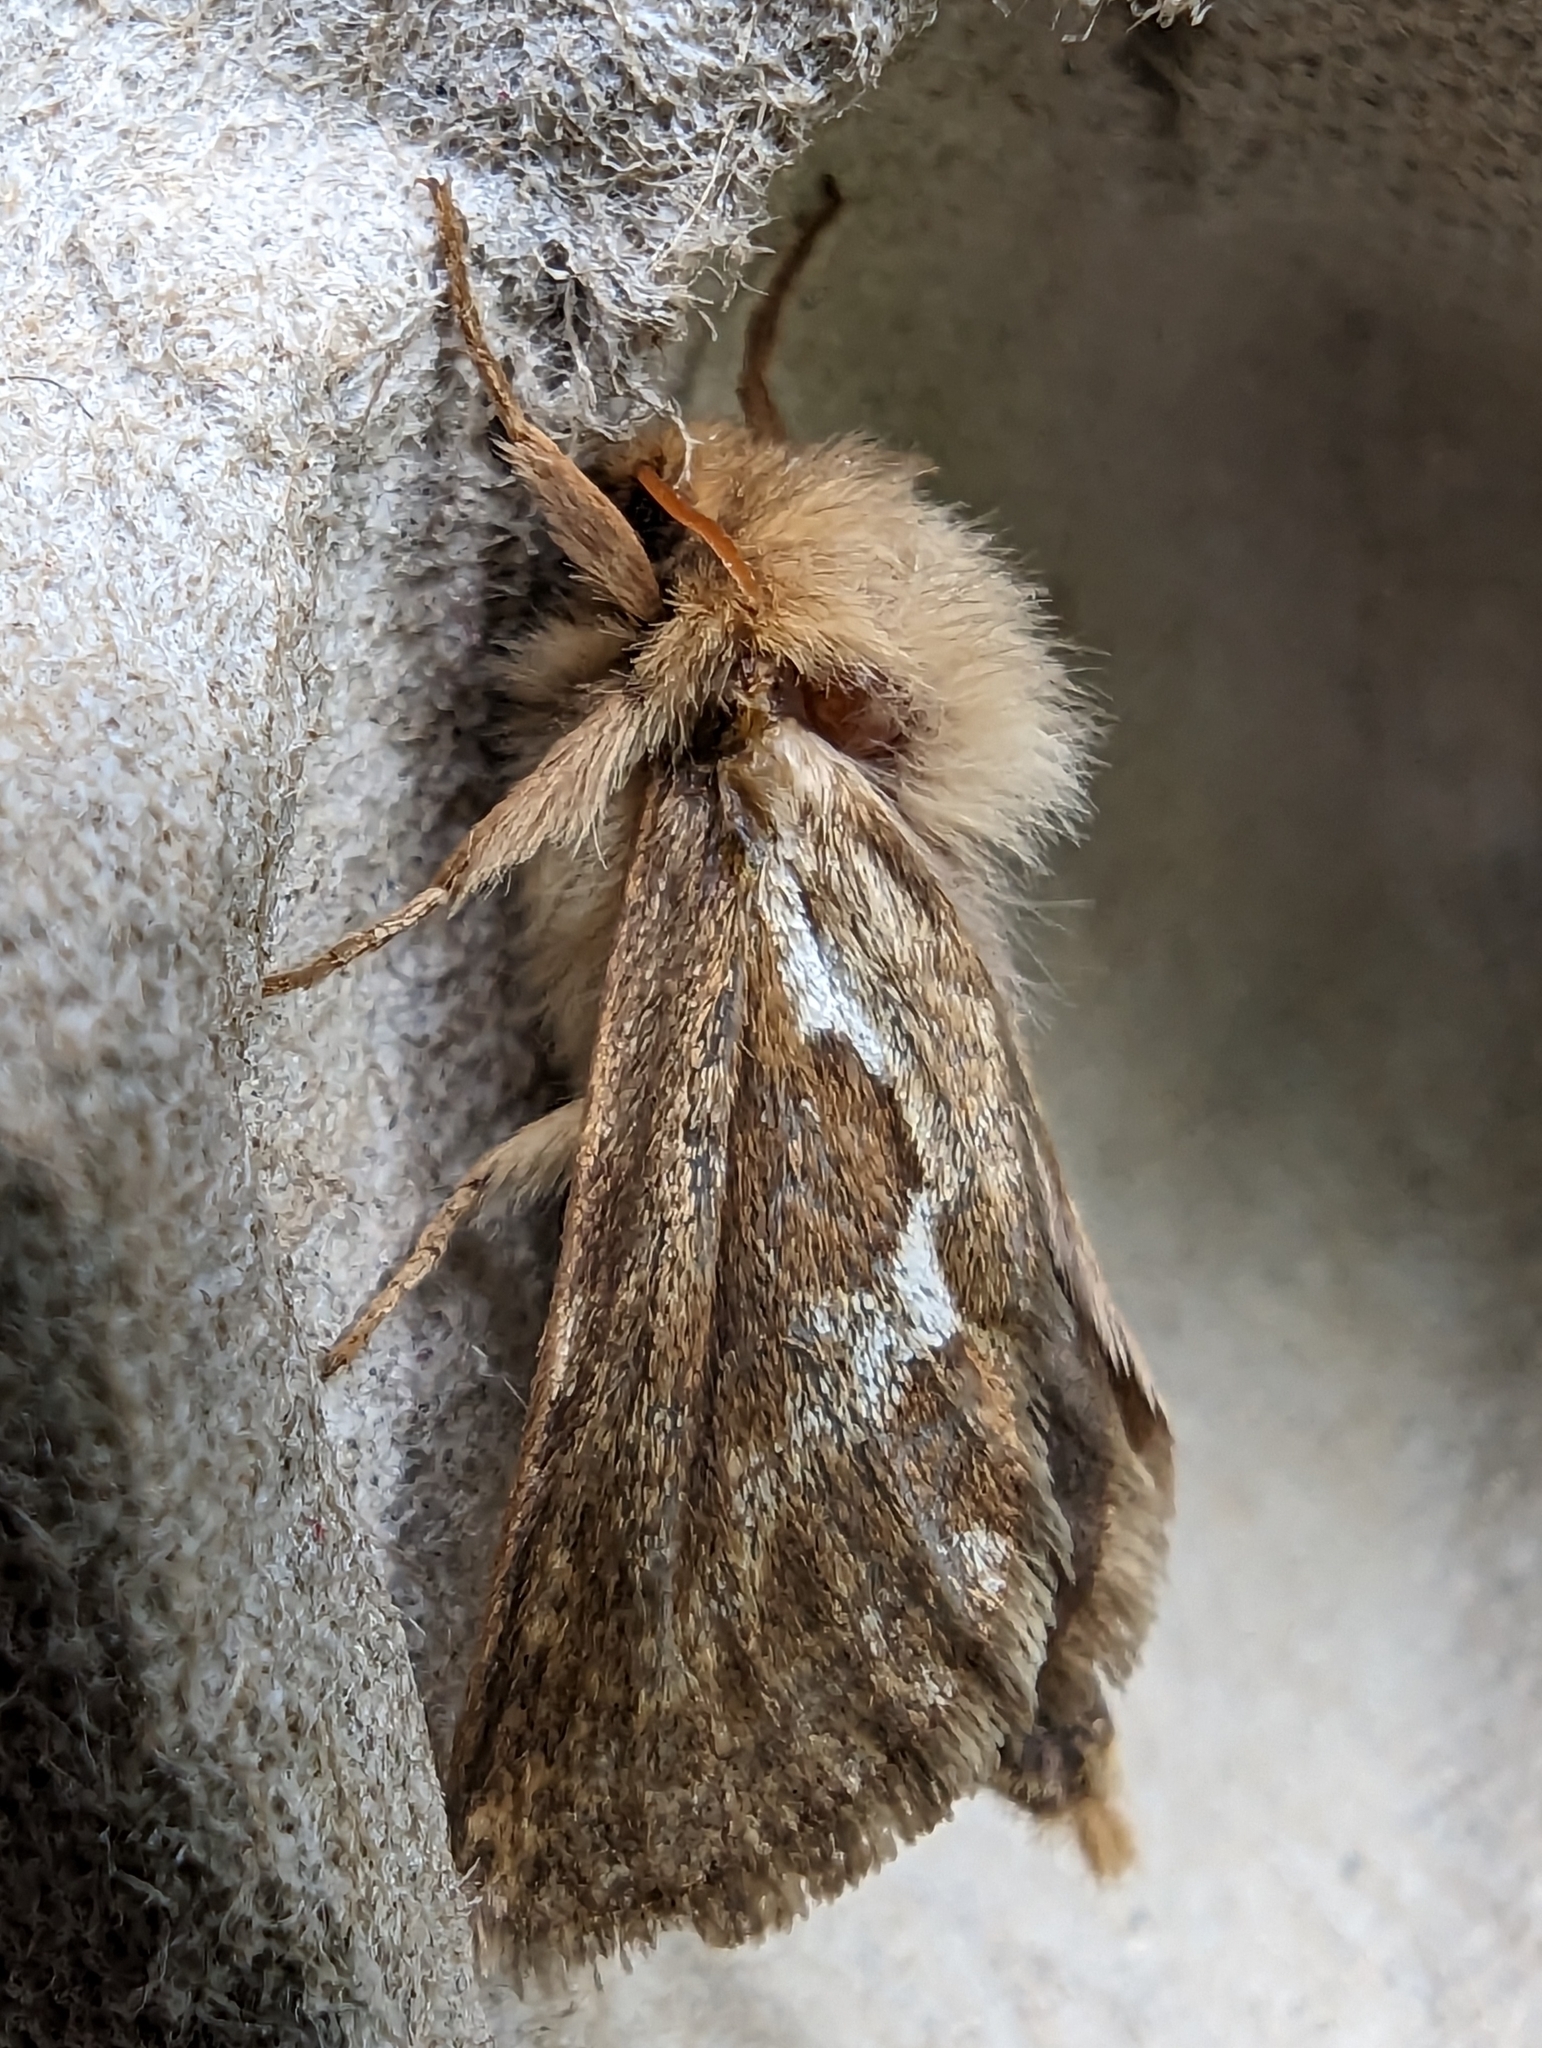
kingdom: Animalia
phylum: Arthropoda
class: Insecta
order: Lepidoptera
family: Hepialidae
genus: Korscheltellus
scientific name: Korscheltellus lupulina
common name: Common swift
